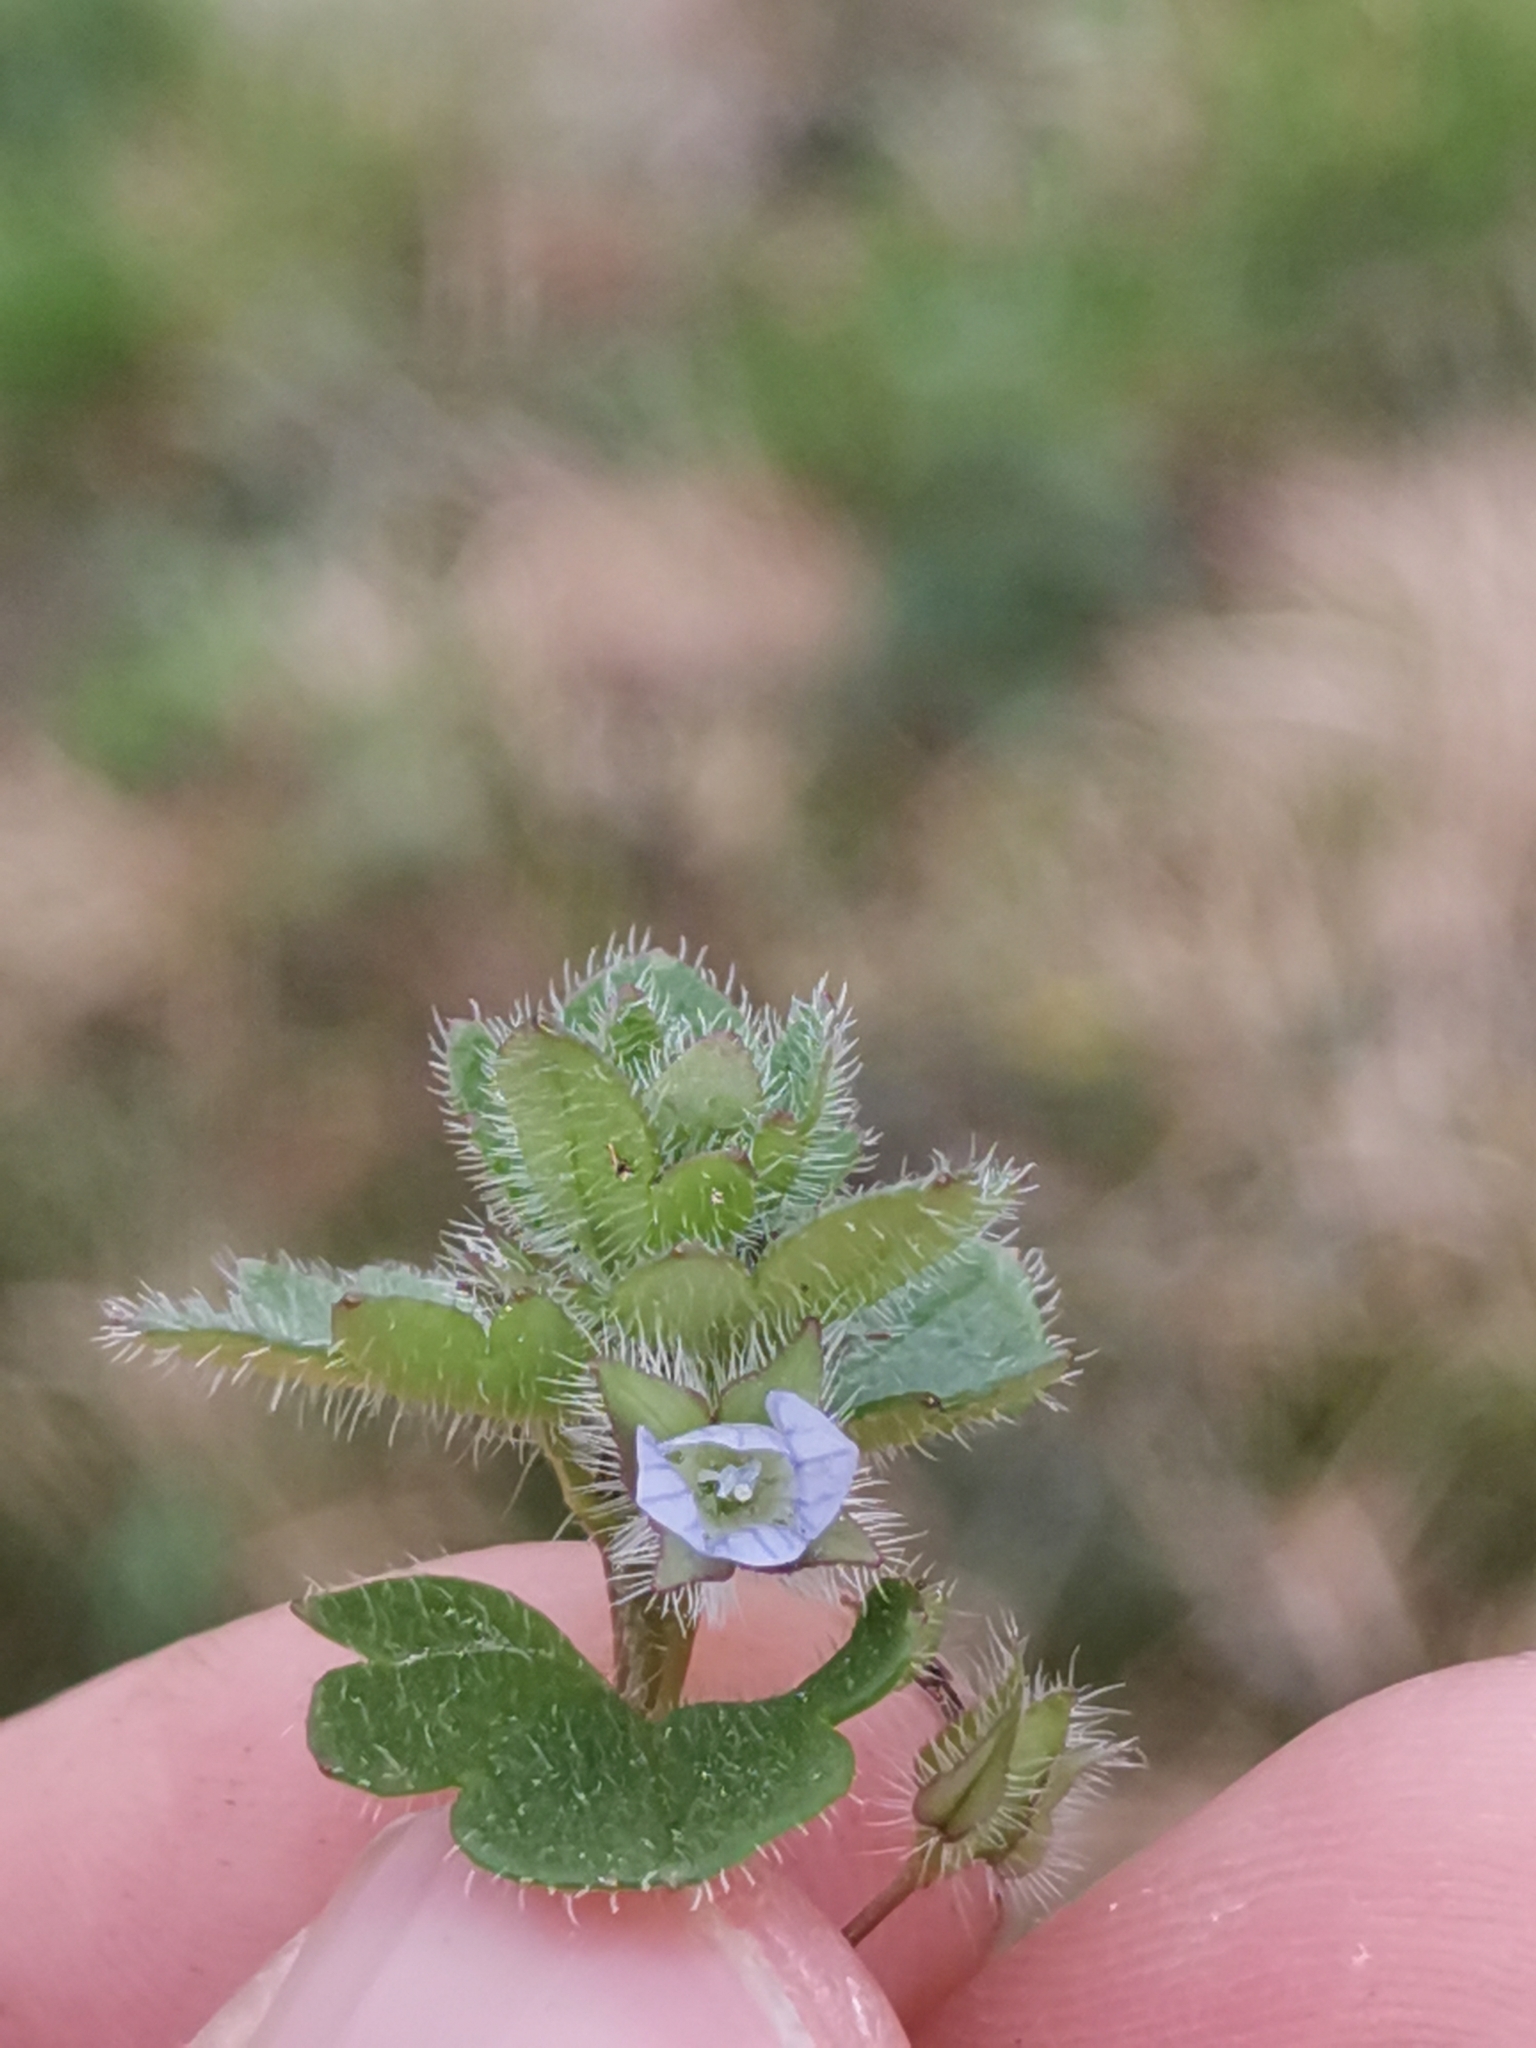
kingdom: Plantae
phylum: Tracheophyta
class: Magnoliopsida
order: Lamiales
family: Plantaginaceae
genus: Veronica
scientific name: Veronica hederifolia
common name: Ivy-leaved speedwell
